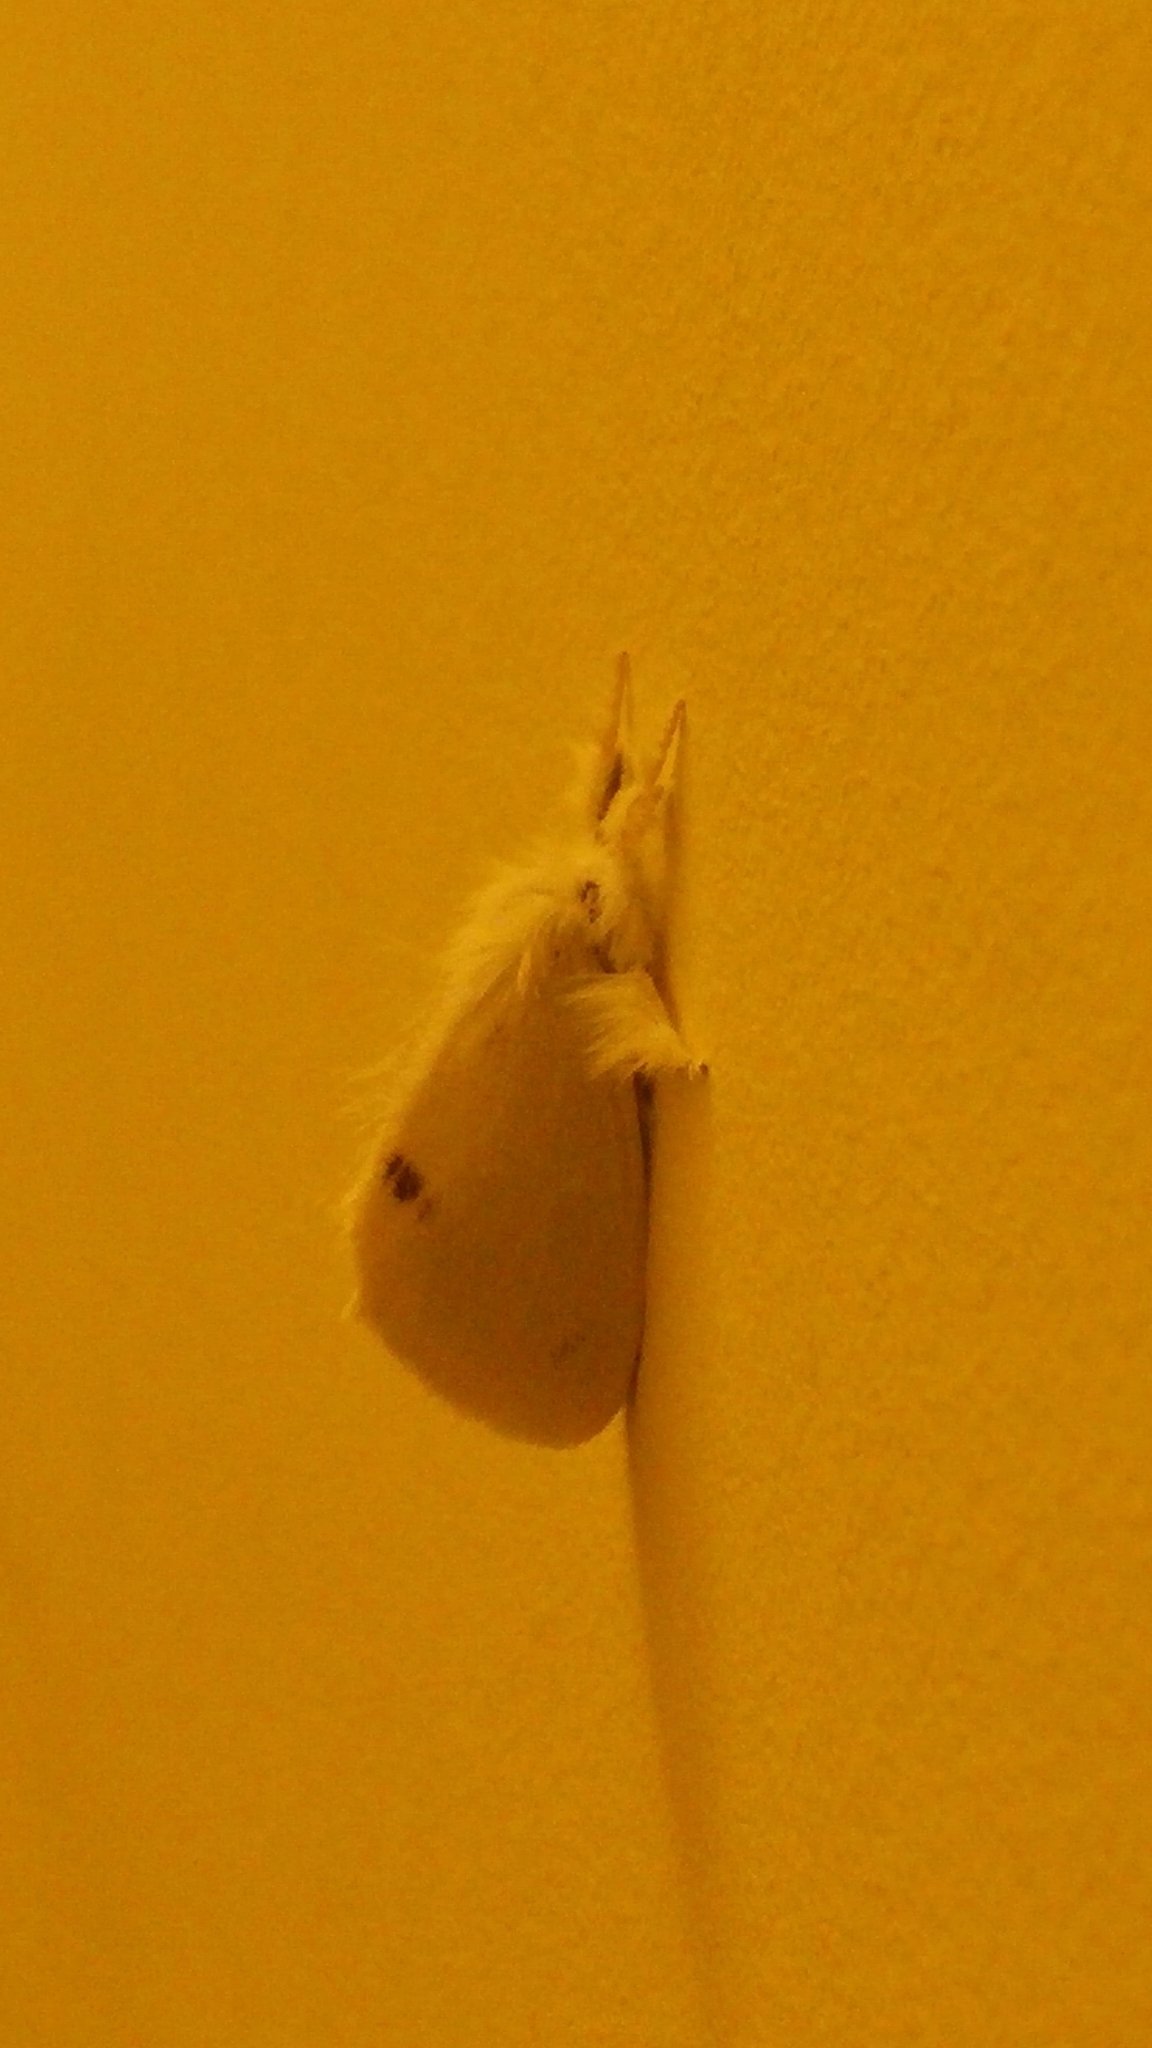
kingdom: Animalia
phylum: Arthropoda
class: Insecta
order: Lepidoptera
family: Erebidae
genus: Sphrageidus
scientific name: Sphrageidus similis
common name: Yellow-tail
